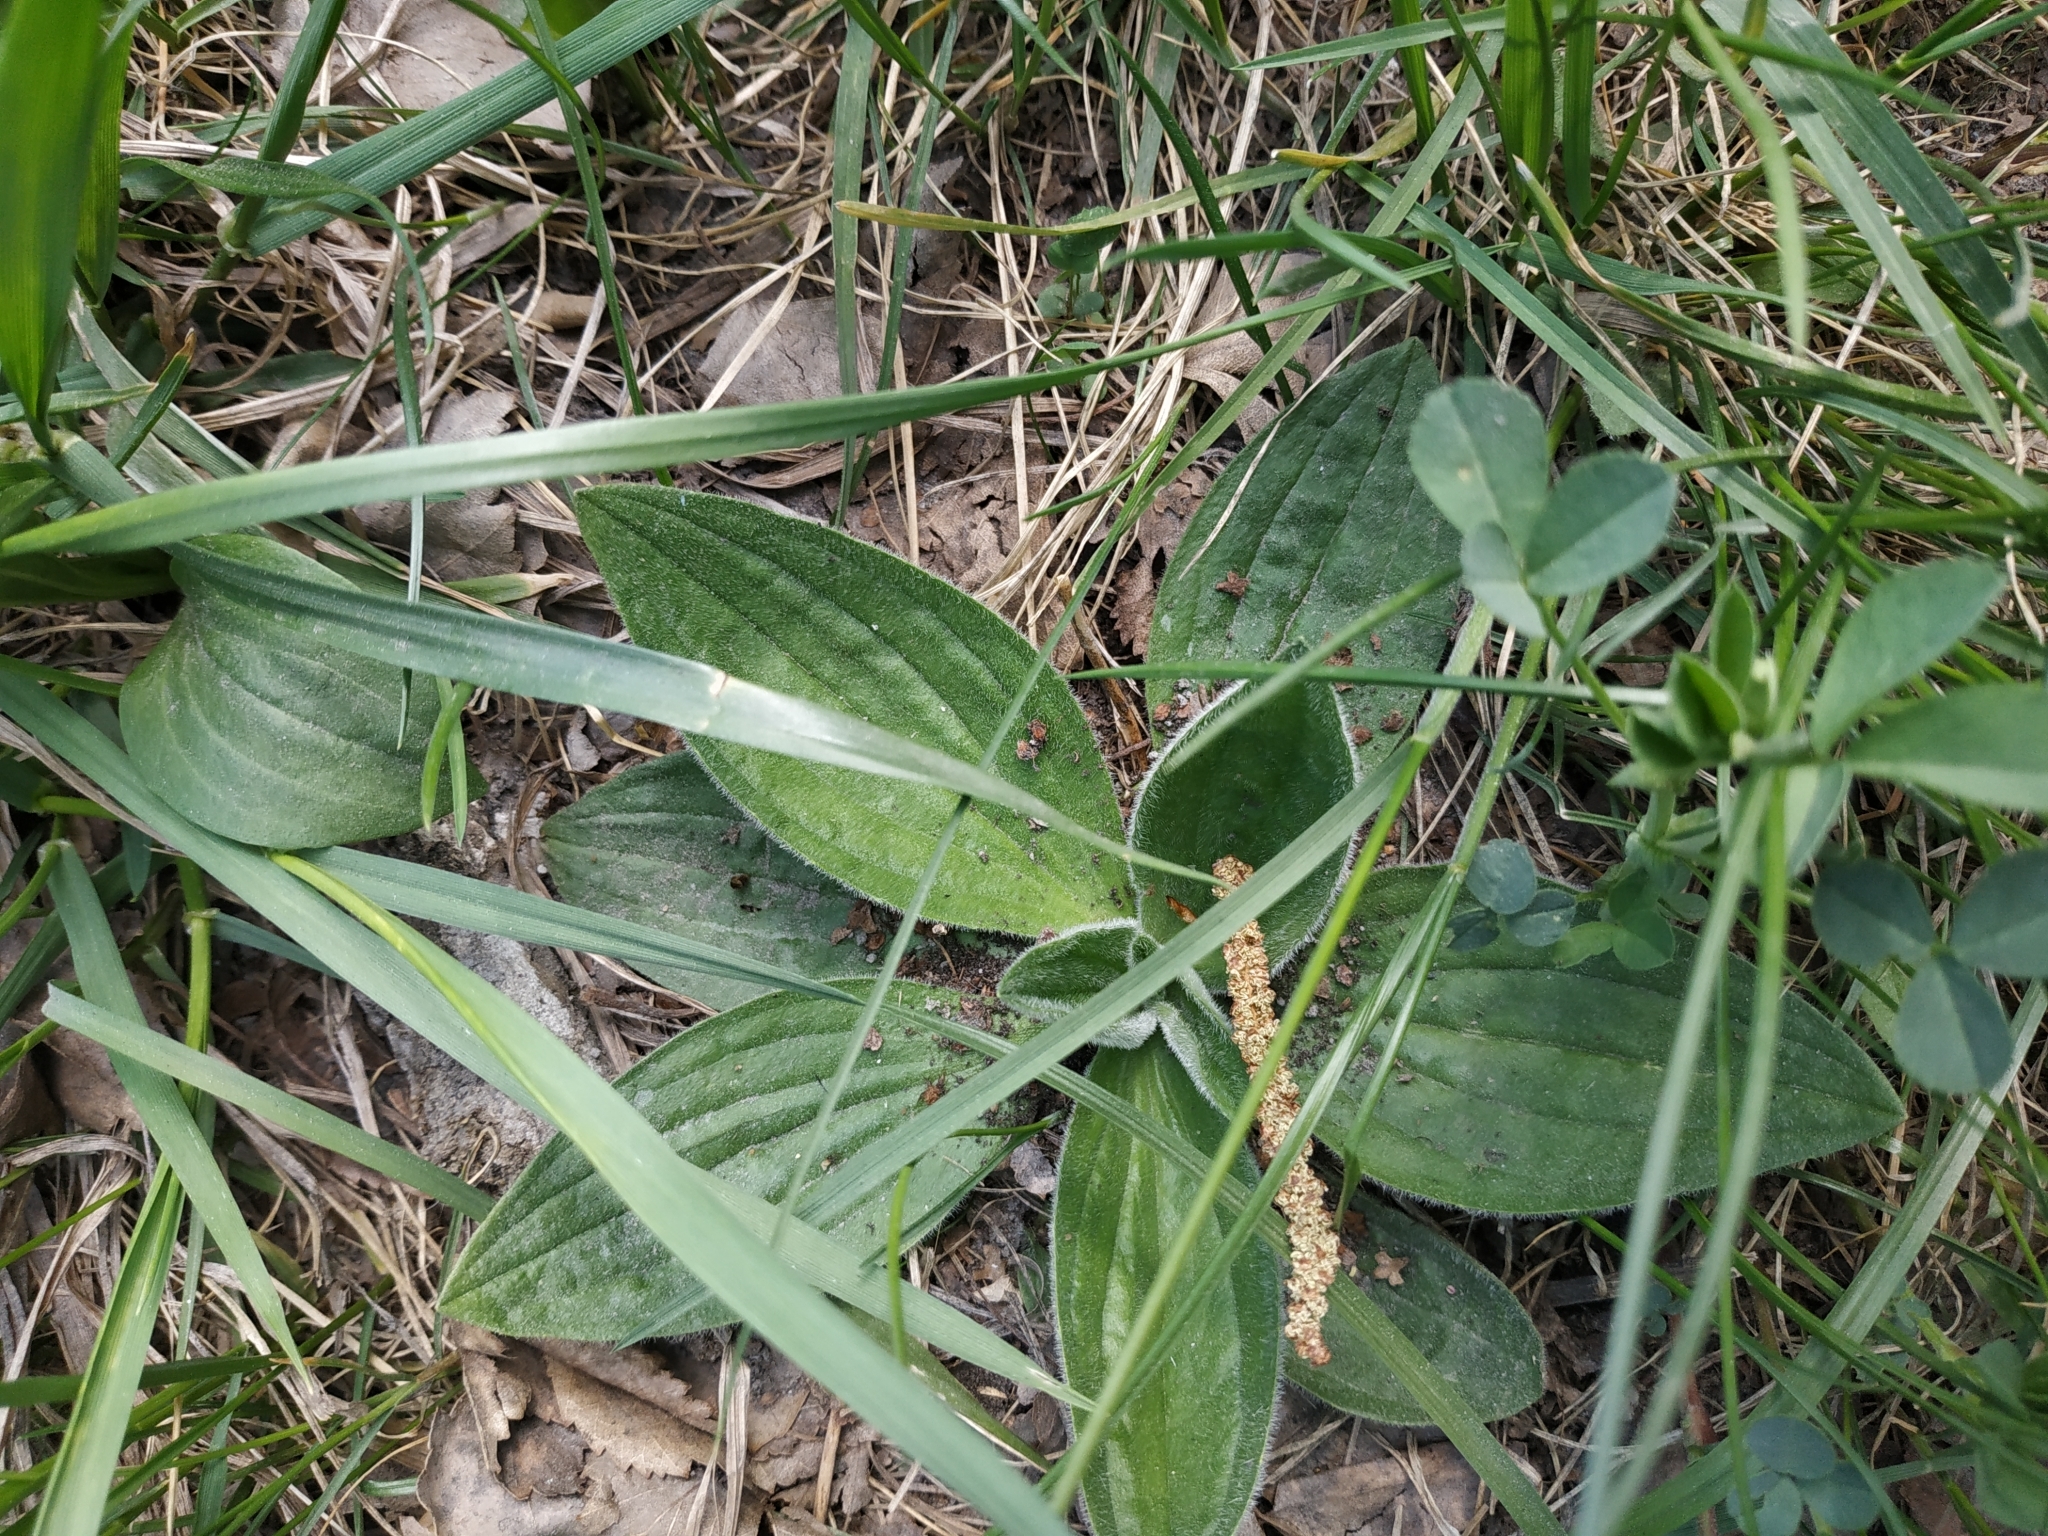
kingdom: Plantae
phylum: Tracheophyta
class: Magnoliopsida
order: Lamiales
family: Plantaginaceae
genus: Plantago
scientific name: Plantago media
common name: Hoary plantain
